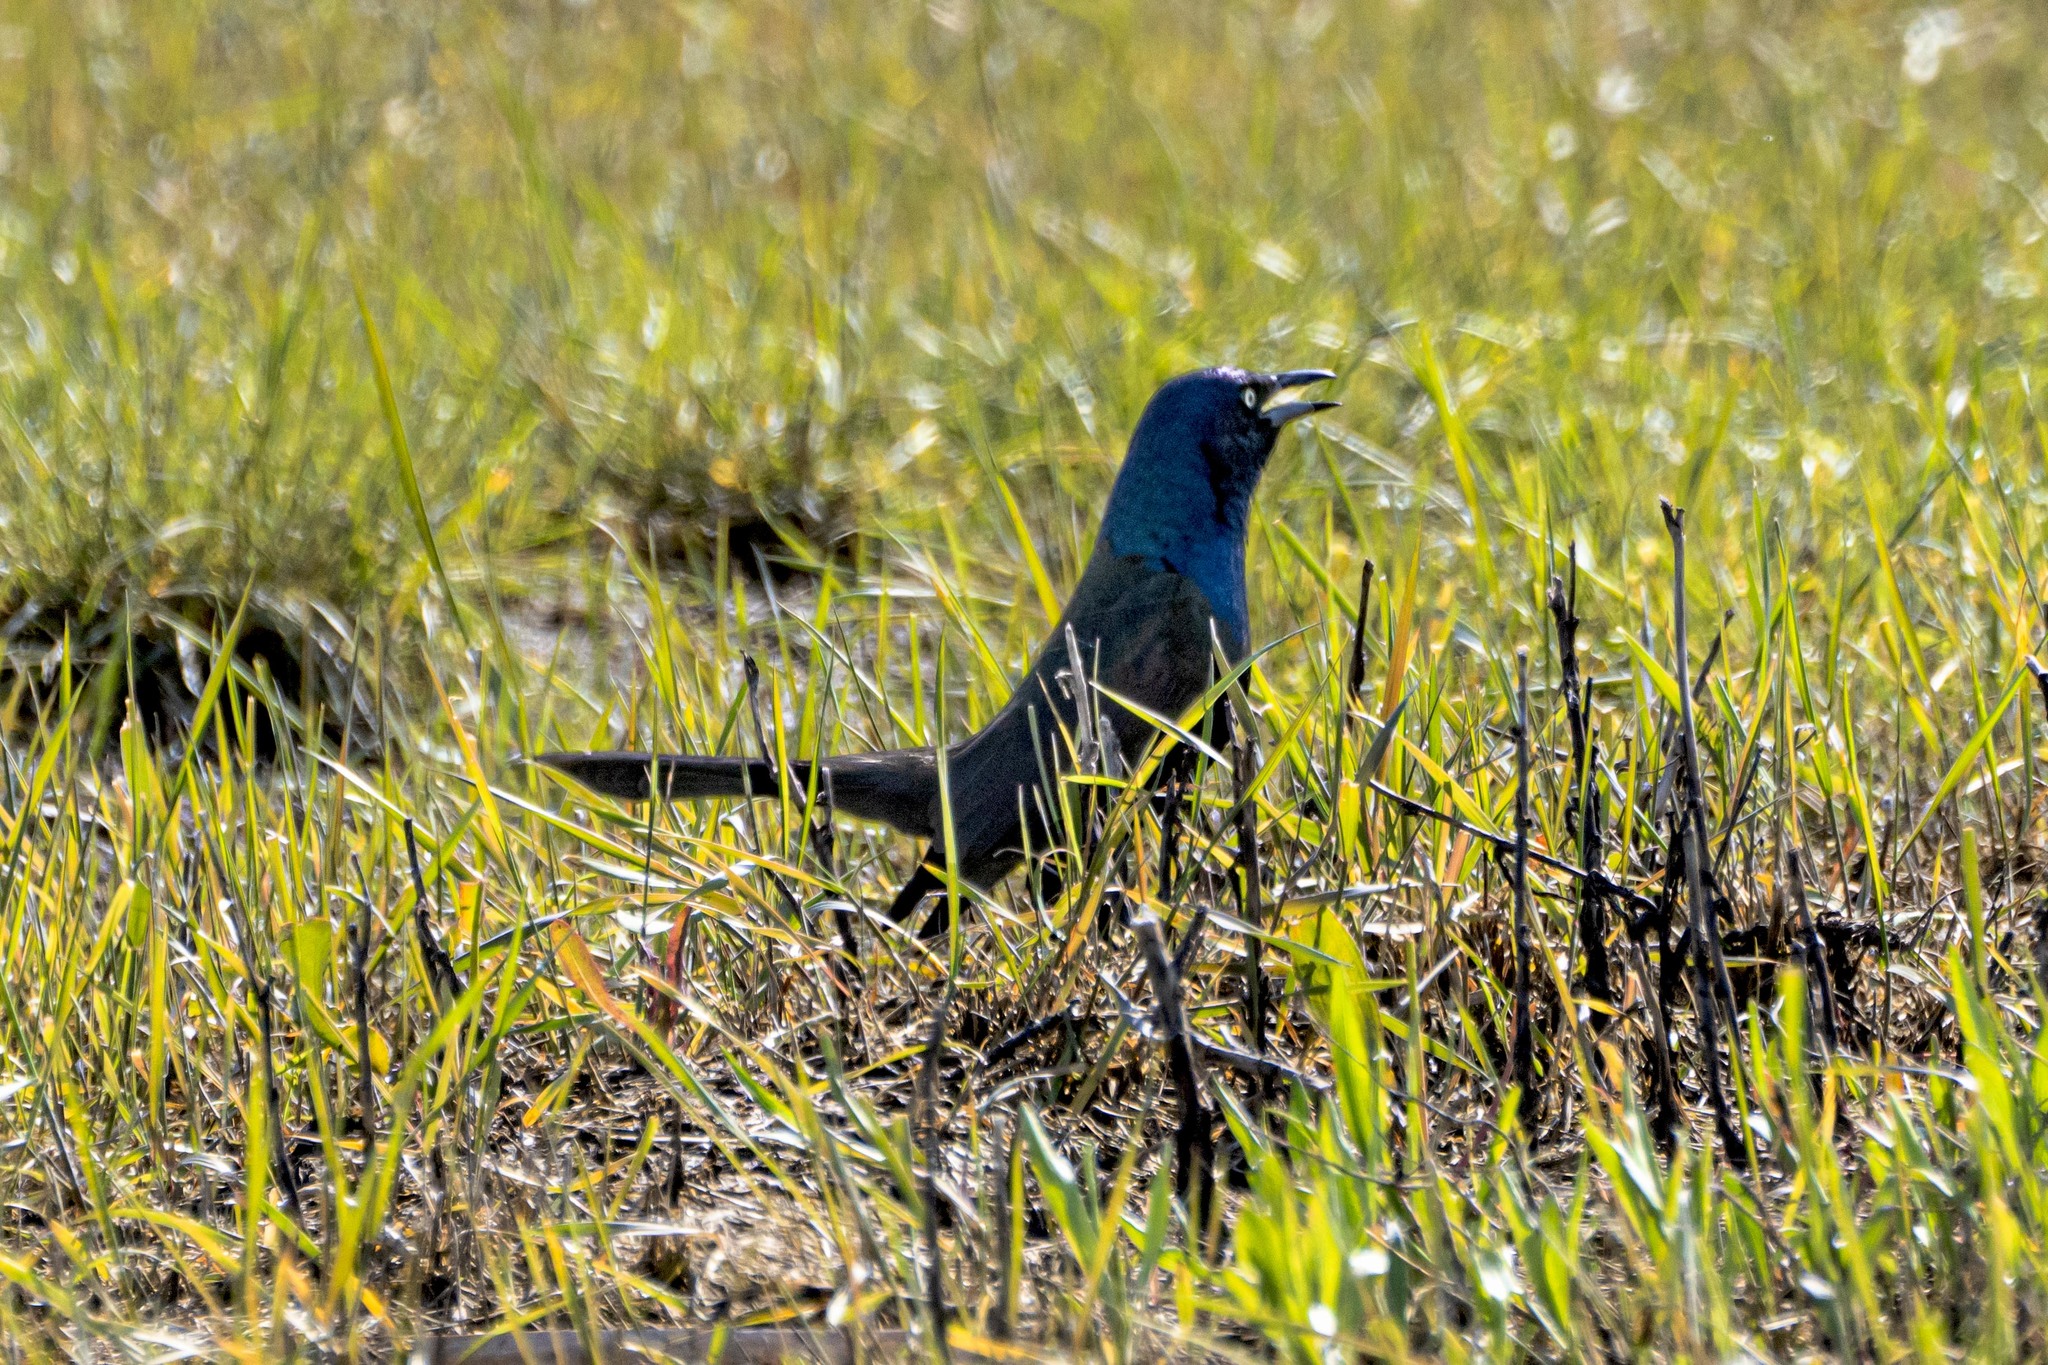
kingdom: Animalia
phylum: Chordata
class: Aves
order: Passeriformes
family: Icteridae
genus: Quiscalus
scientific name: Quiscalus quiscula
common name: Common grackle
